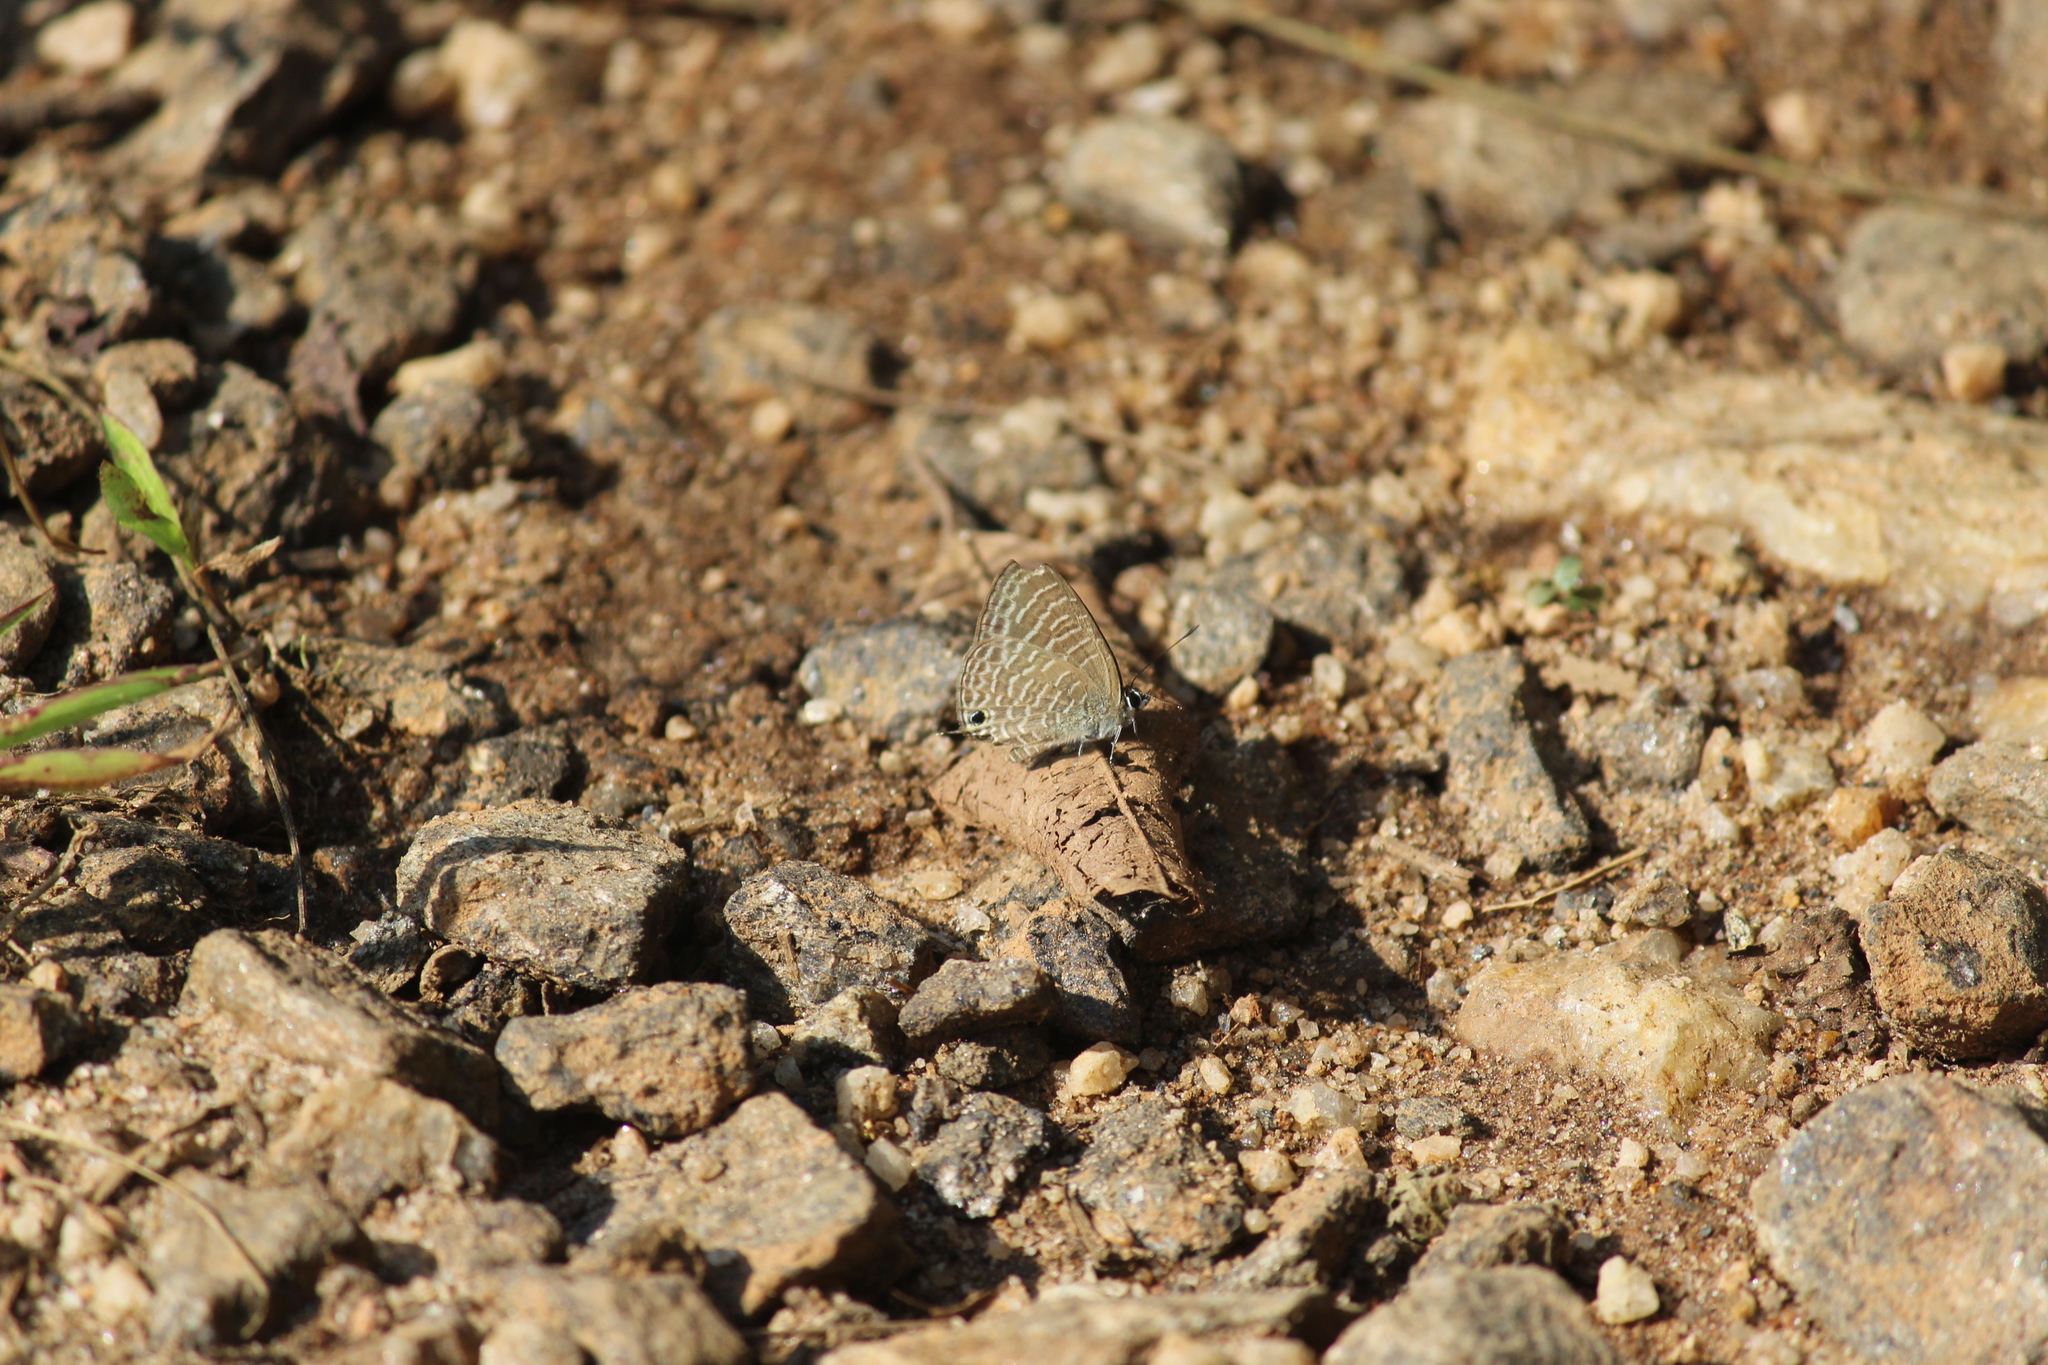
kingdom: Animalia
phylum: Arthropoda
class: Insecta
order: Lepidoptera
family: Lycaenidae
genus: Nacaduba
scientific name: Nacaduba hermus
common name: Pale four-line blue
